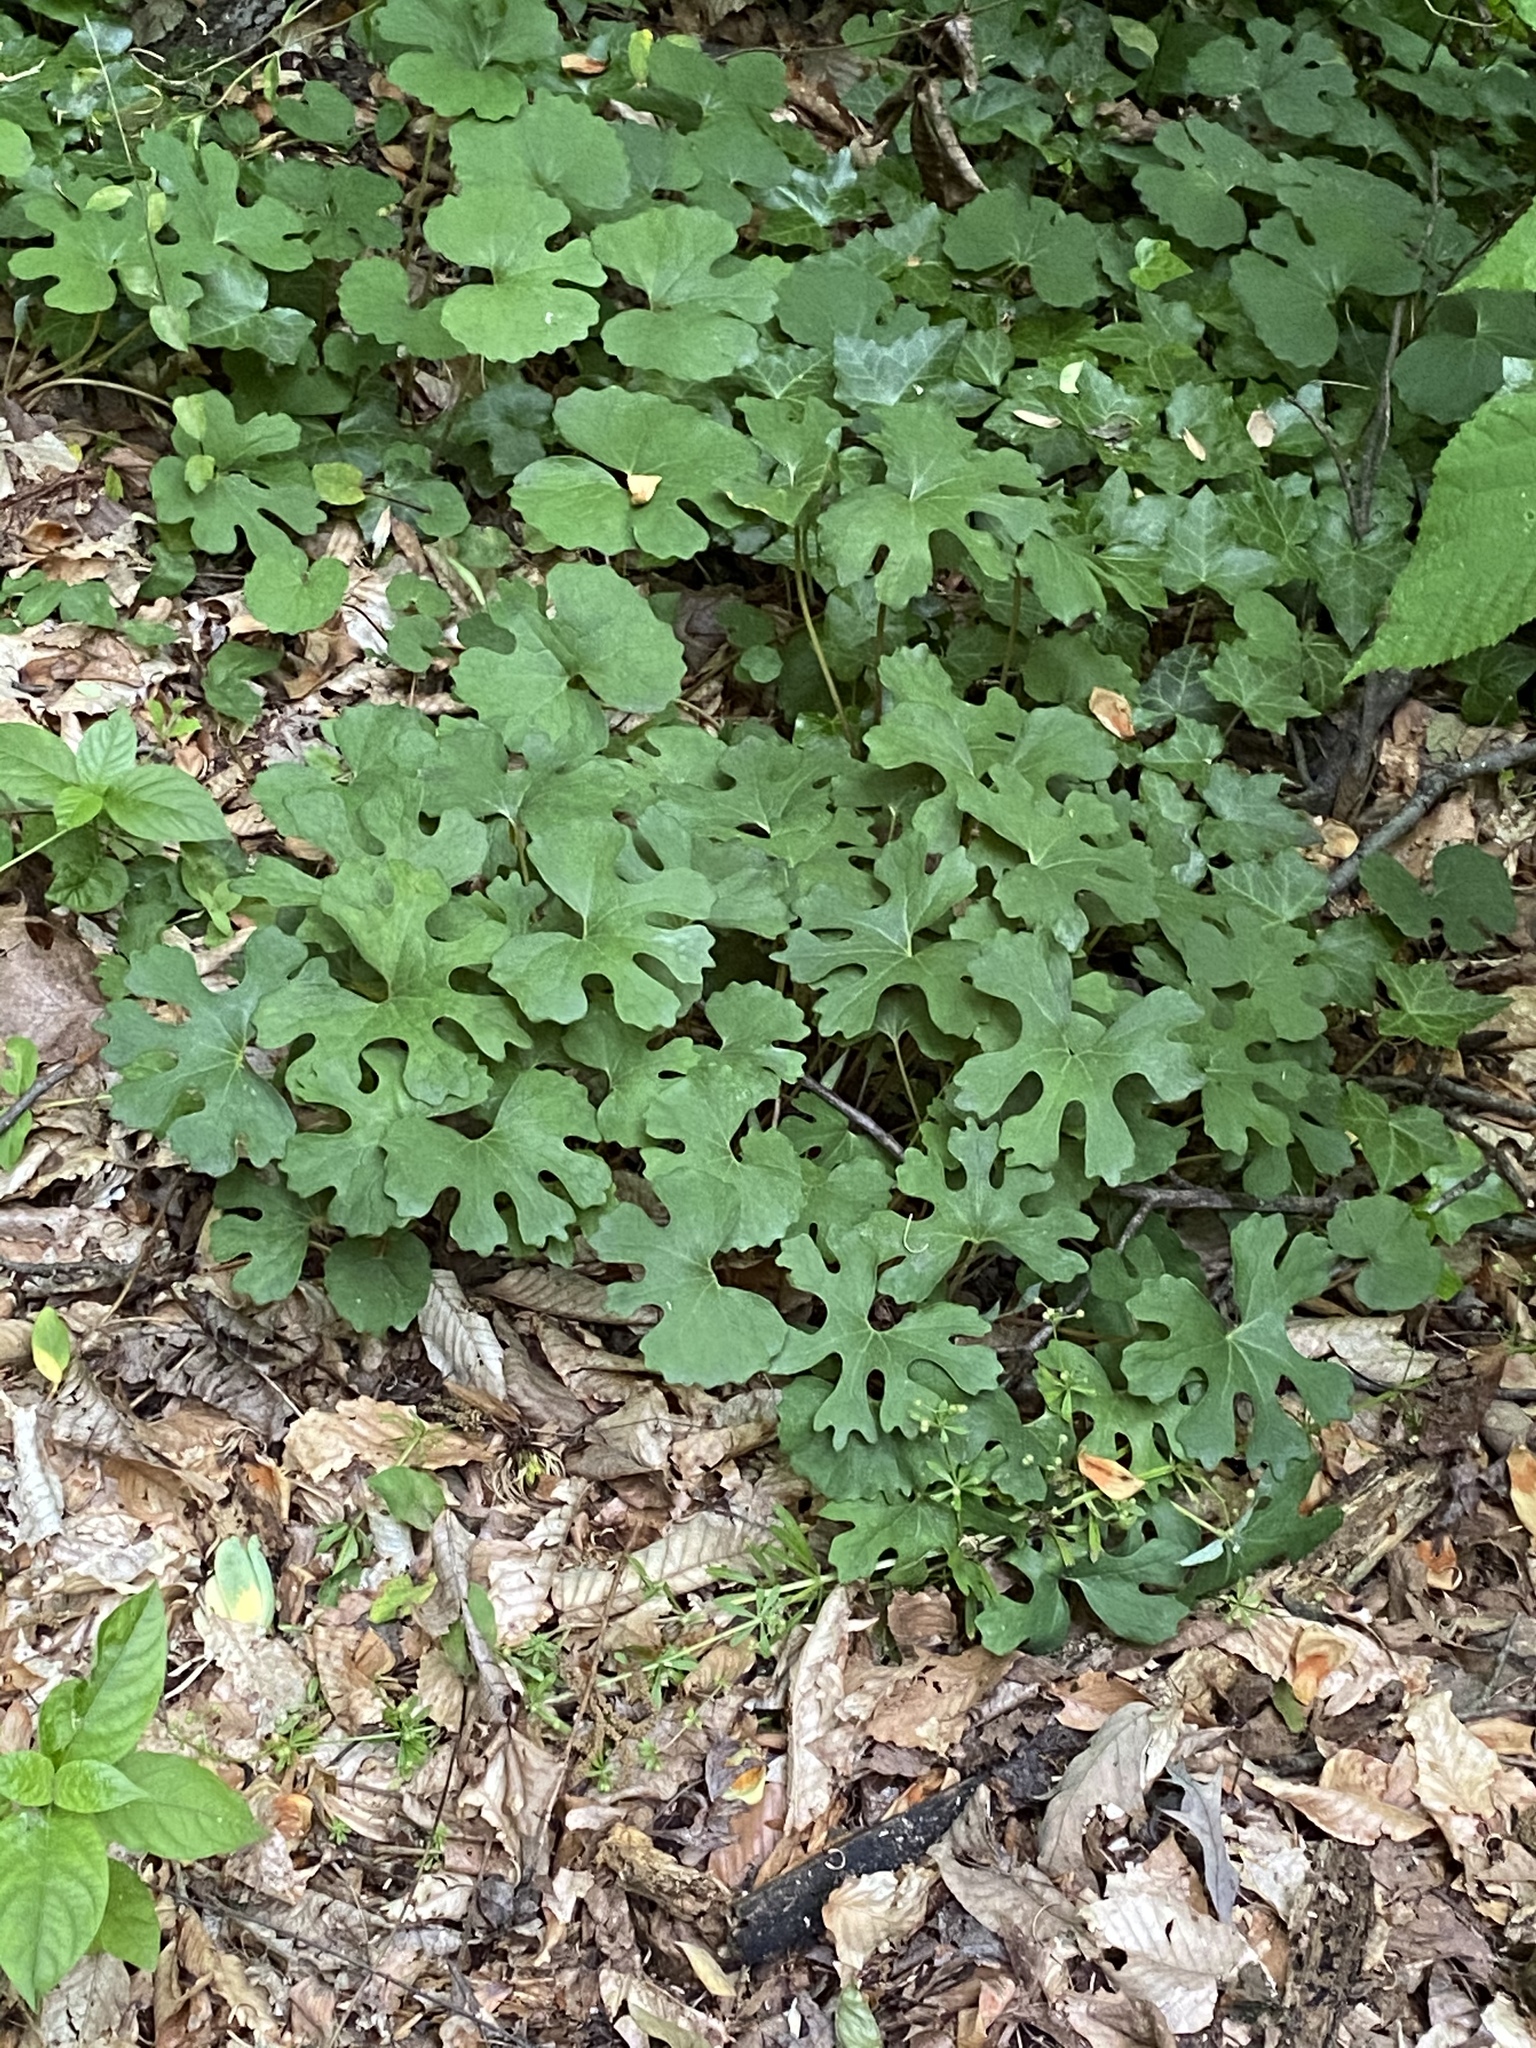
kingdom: Plantae
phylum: Tracheophyta
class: Magnoliopsida
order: Ranunculales
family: Papaveraceae
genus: Sanguinaria
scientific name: Sanguinaria canadensis
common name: Bloodroot
